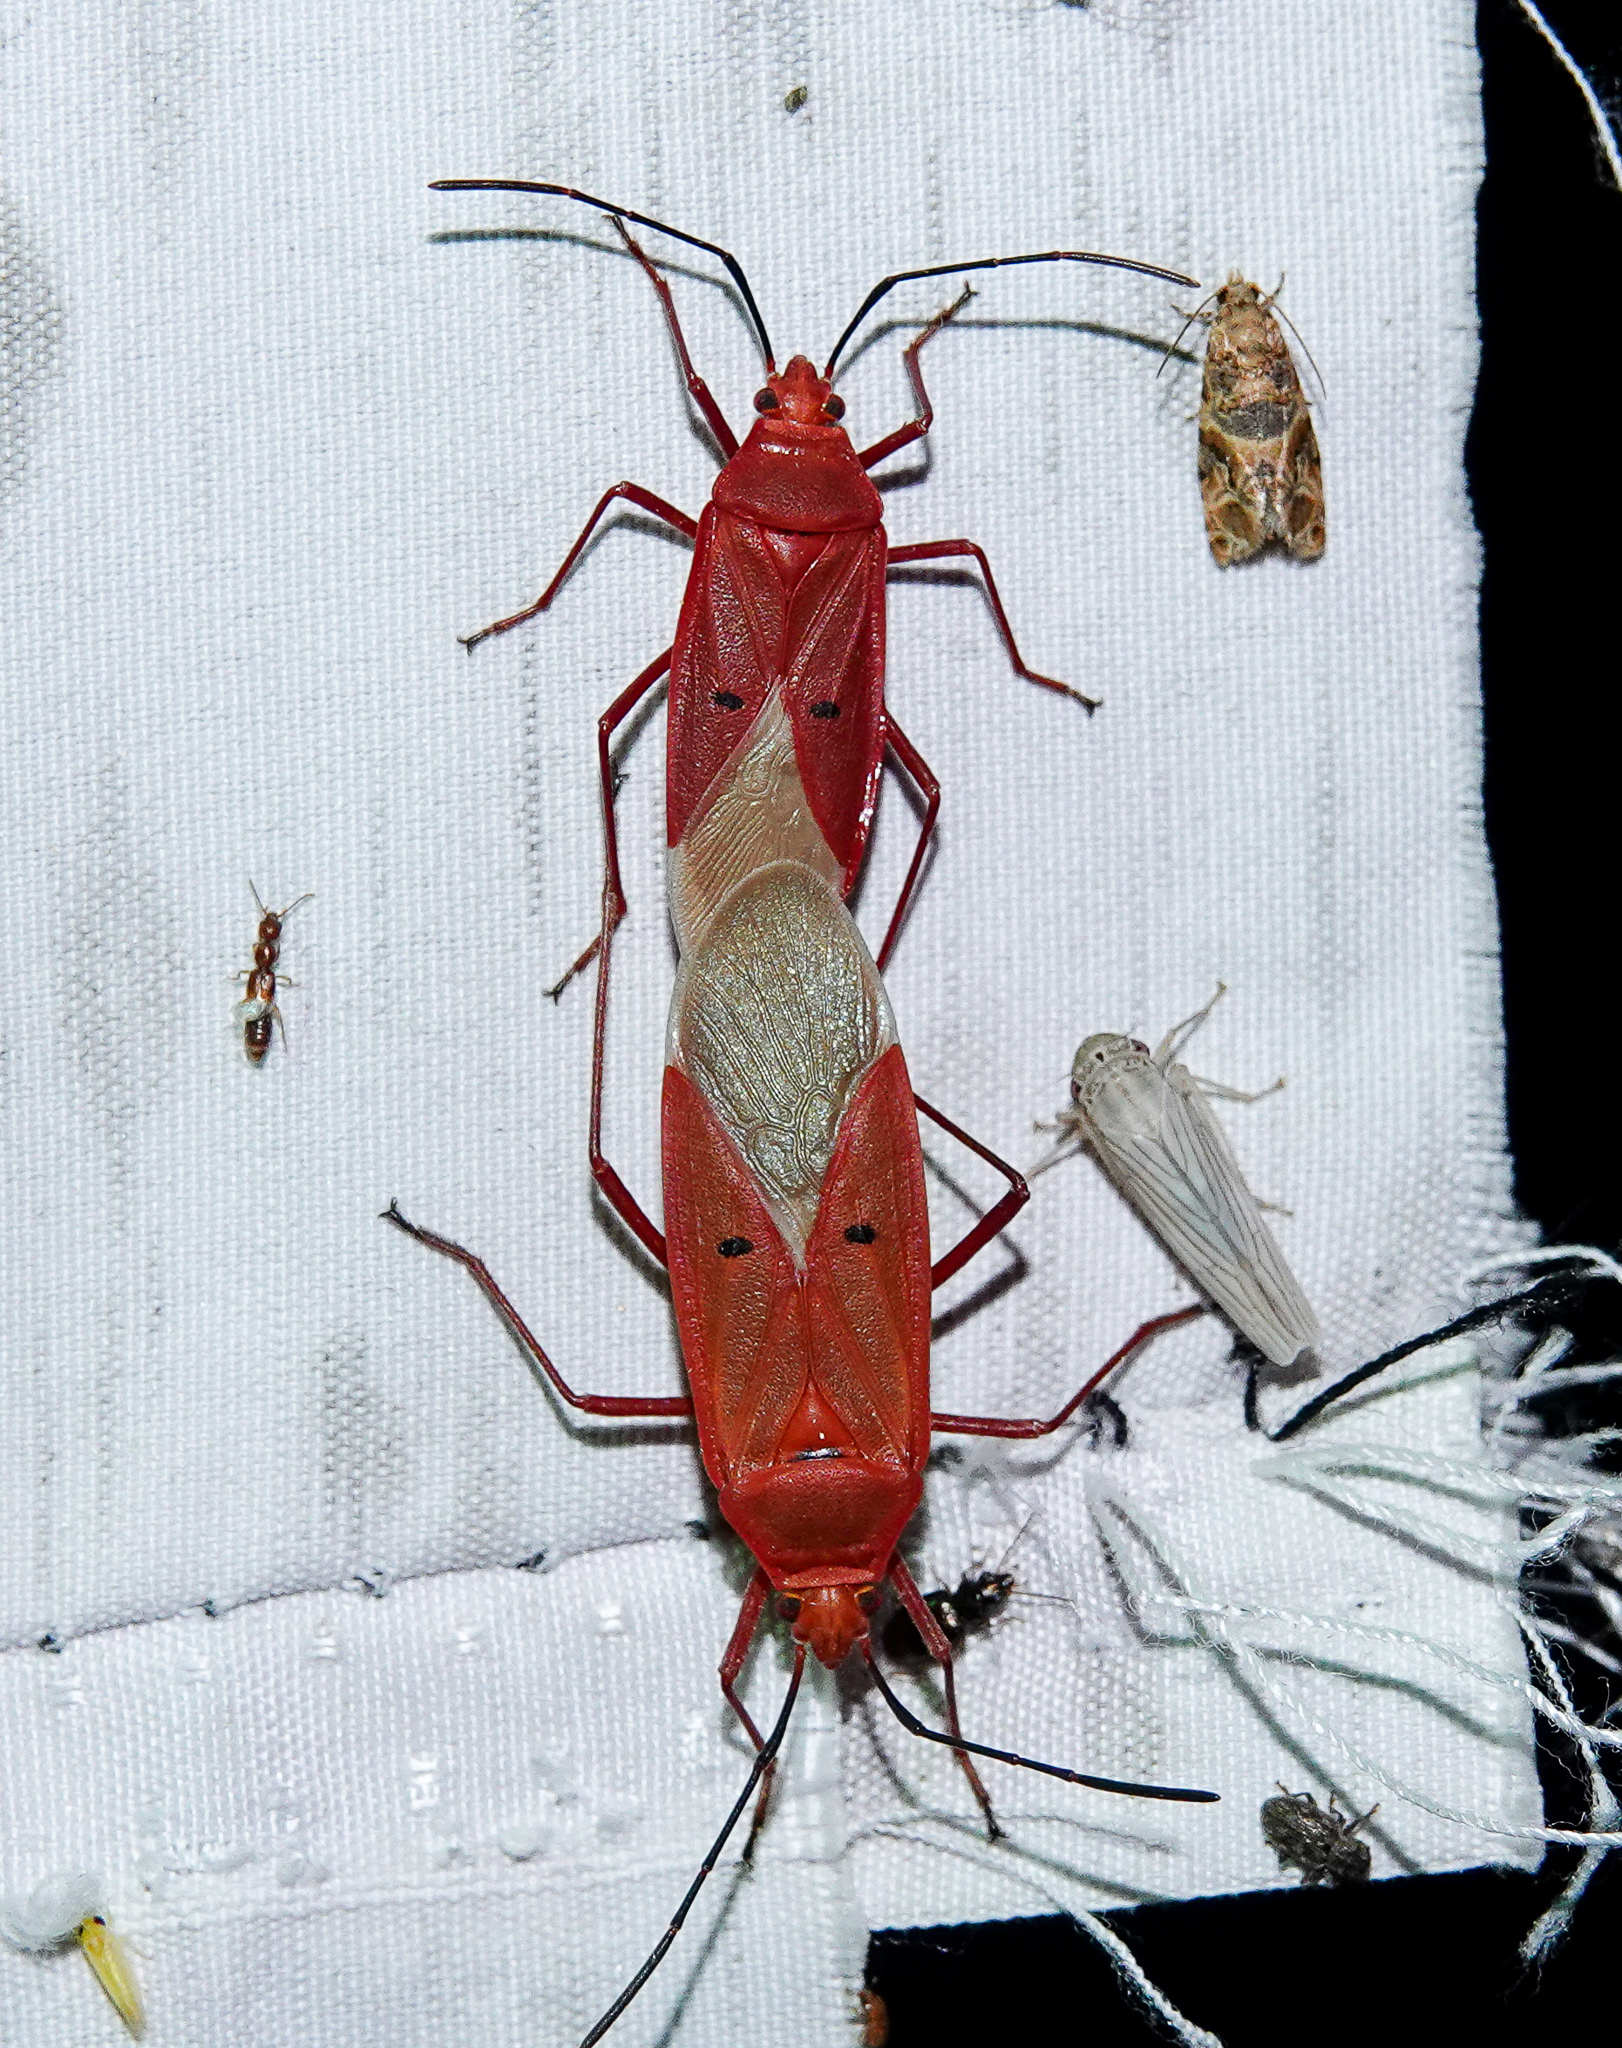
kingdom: Animalia
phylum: Arthropoda
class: Insecta
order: Hemiptera
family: Pyrrhocoridae
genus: Dysdercus
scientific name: Dysdercus evanescens
